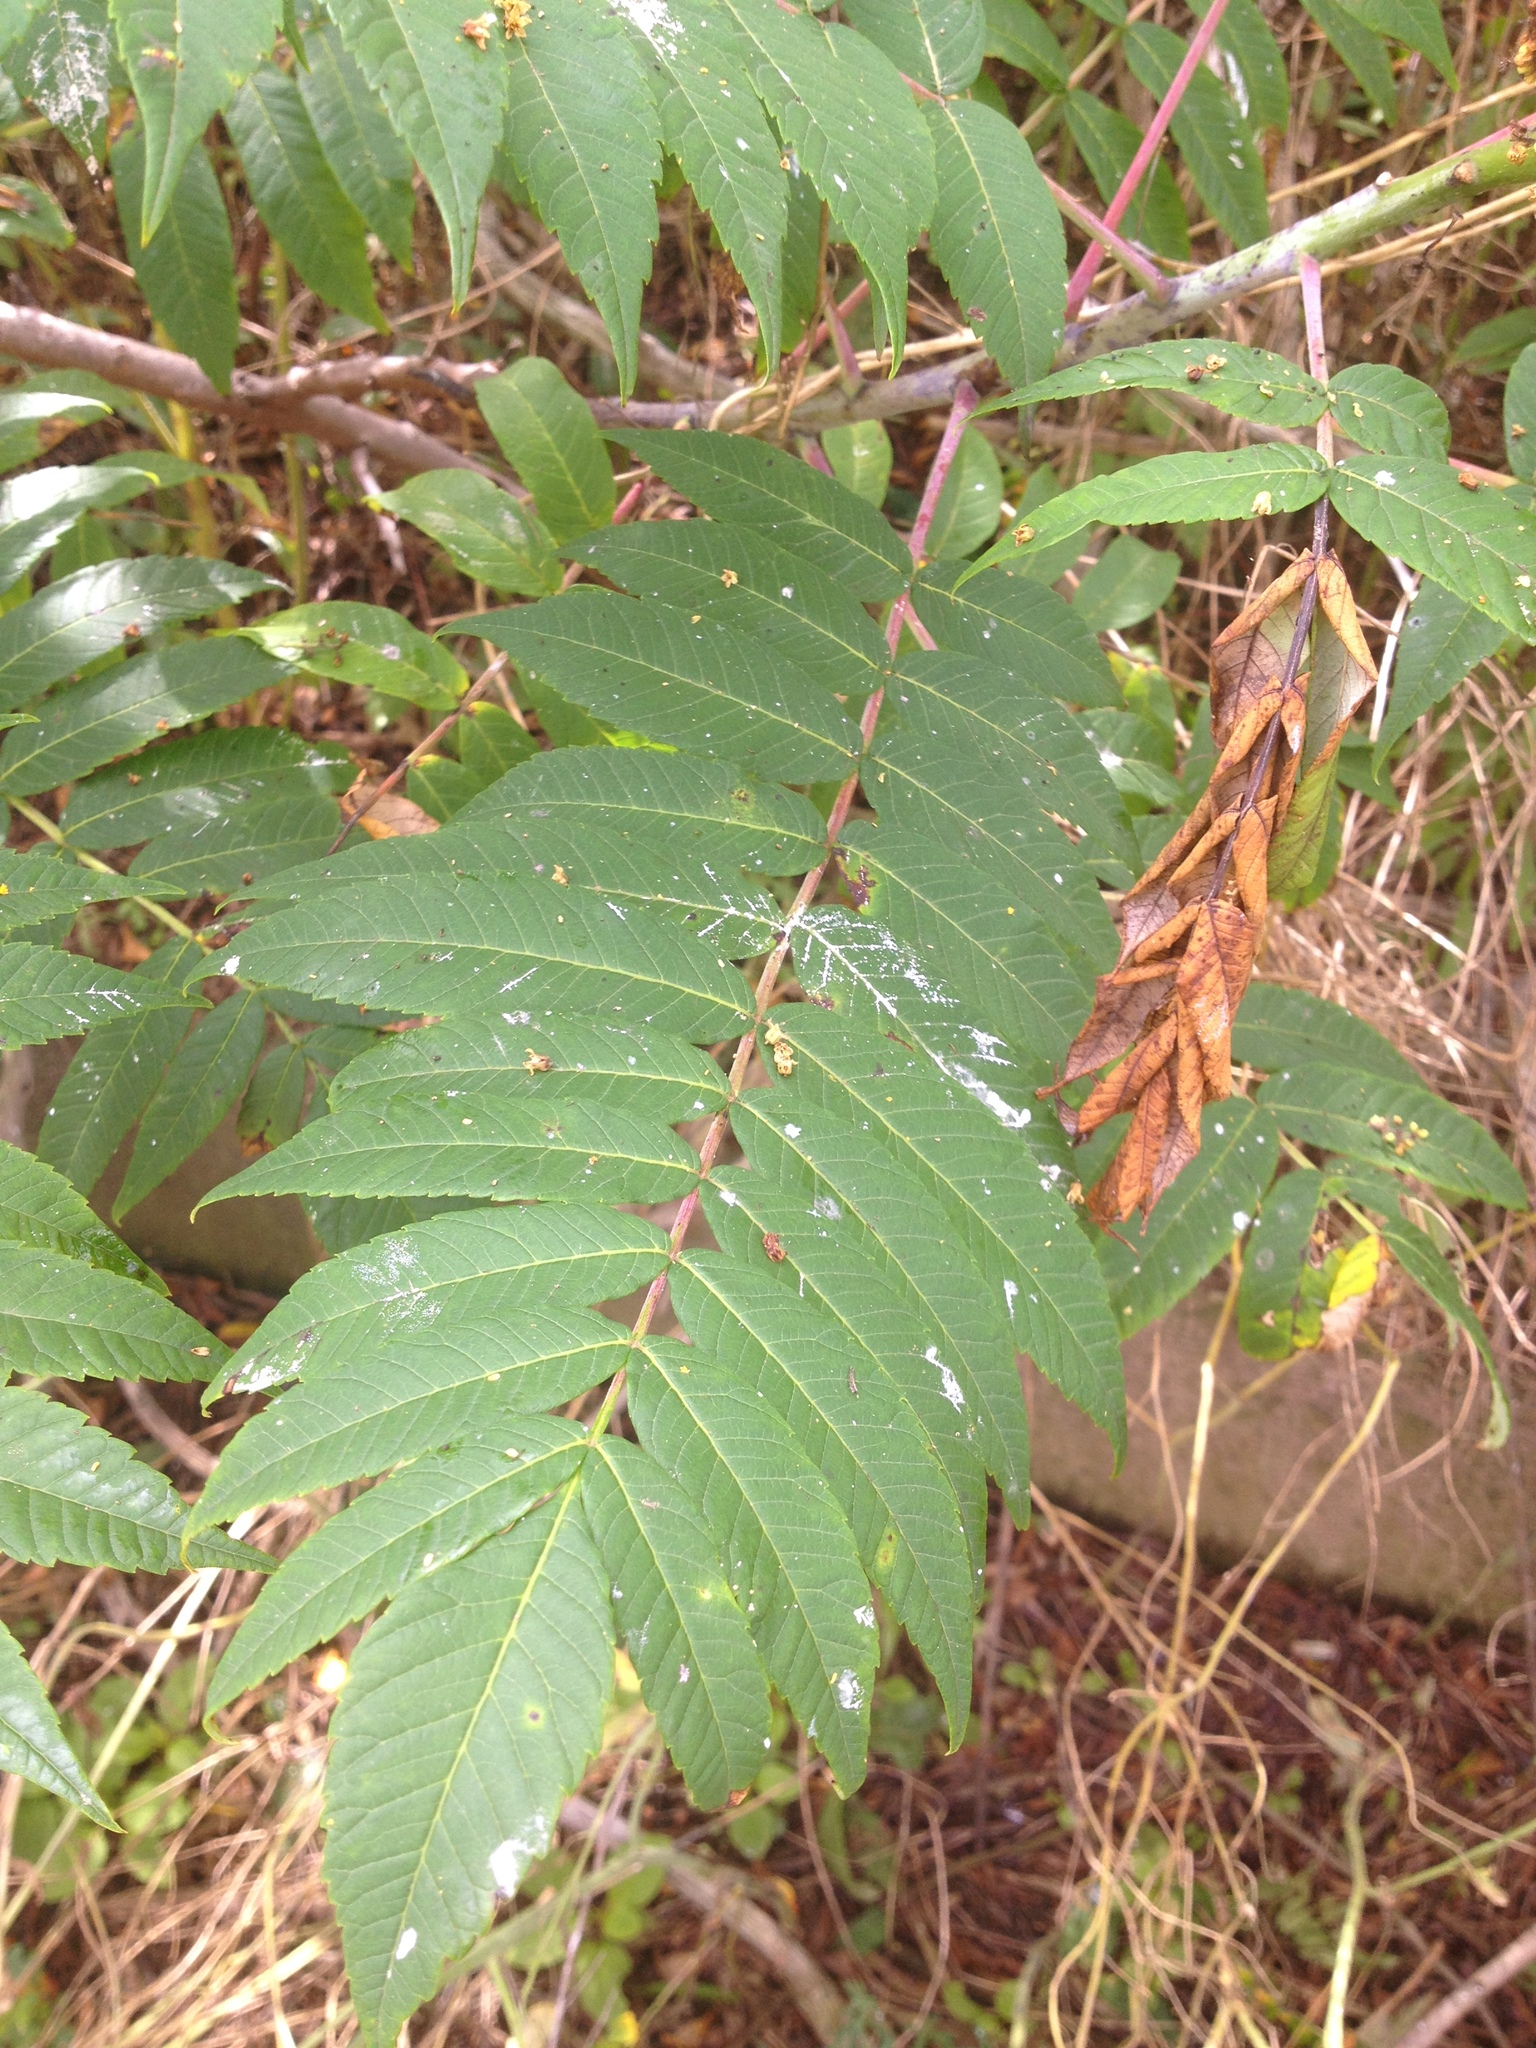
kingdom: Plantae
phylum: Tracheophyta
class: Magnoliopsida
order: Sapindales
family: Anacardiaceae
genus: Rhus
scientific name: Rhus glabra
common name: Scarlet sumac
